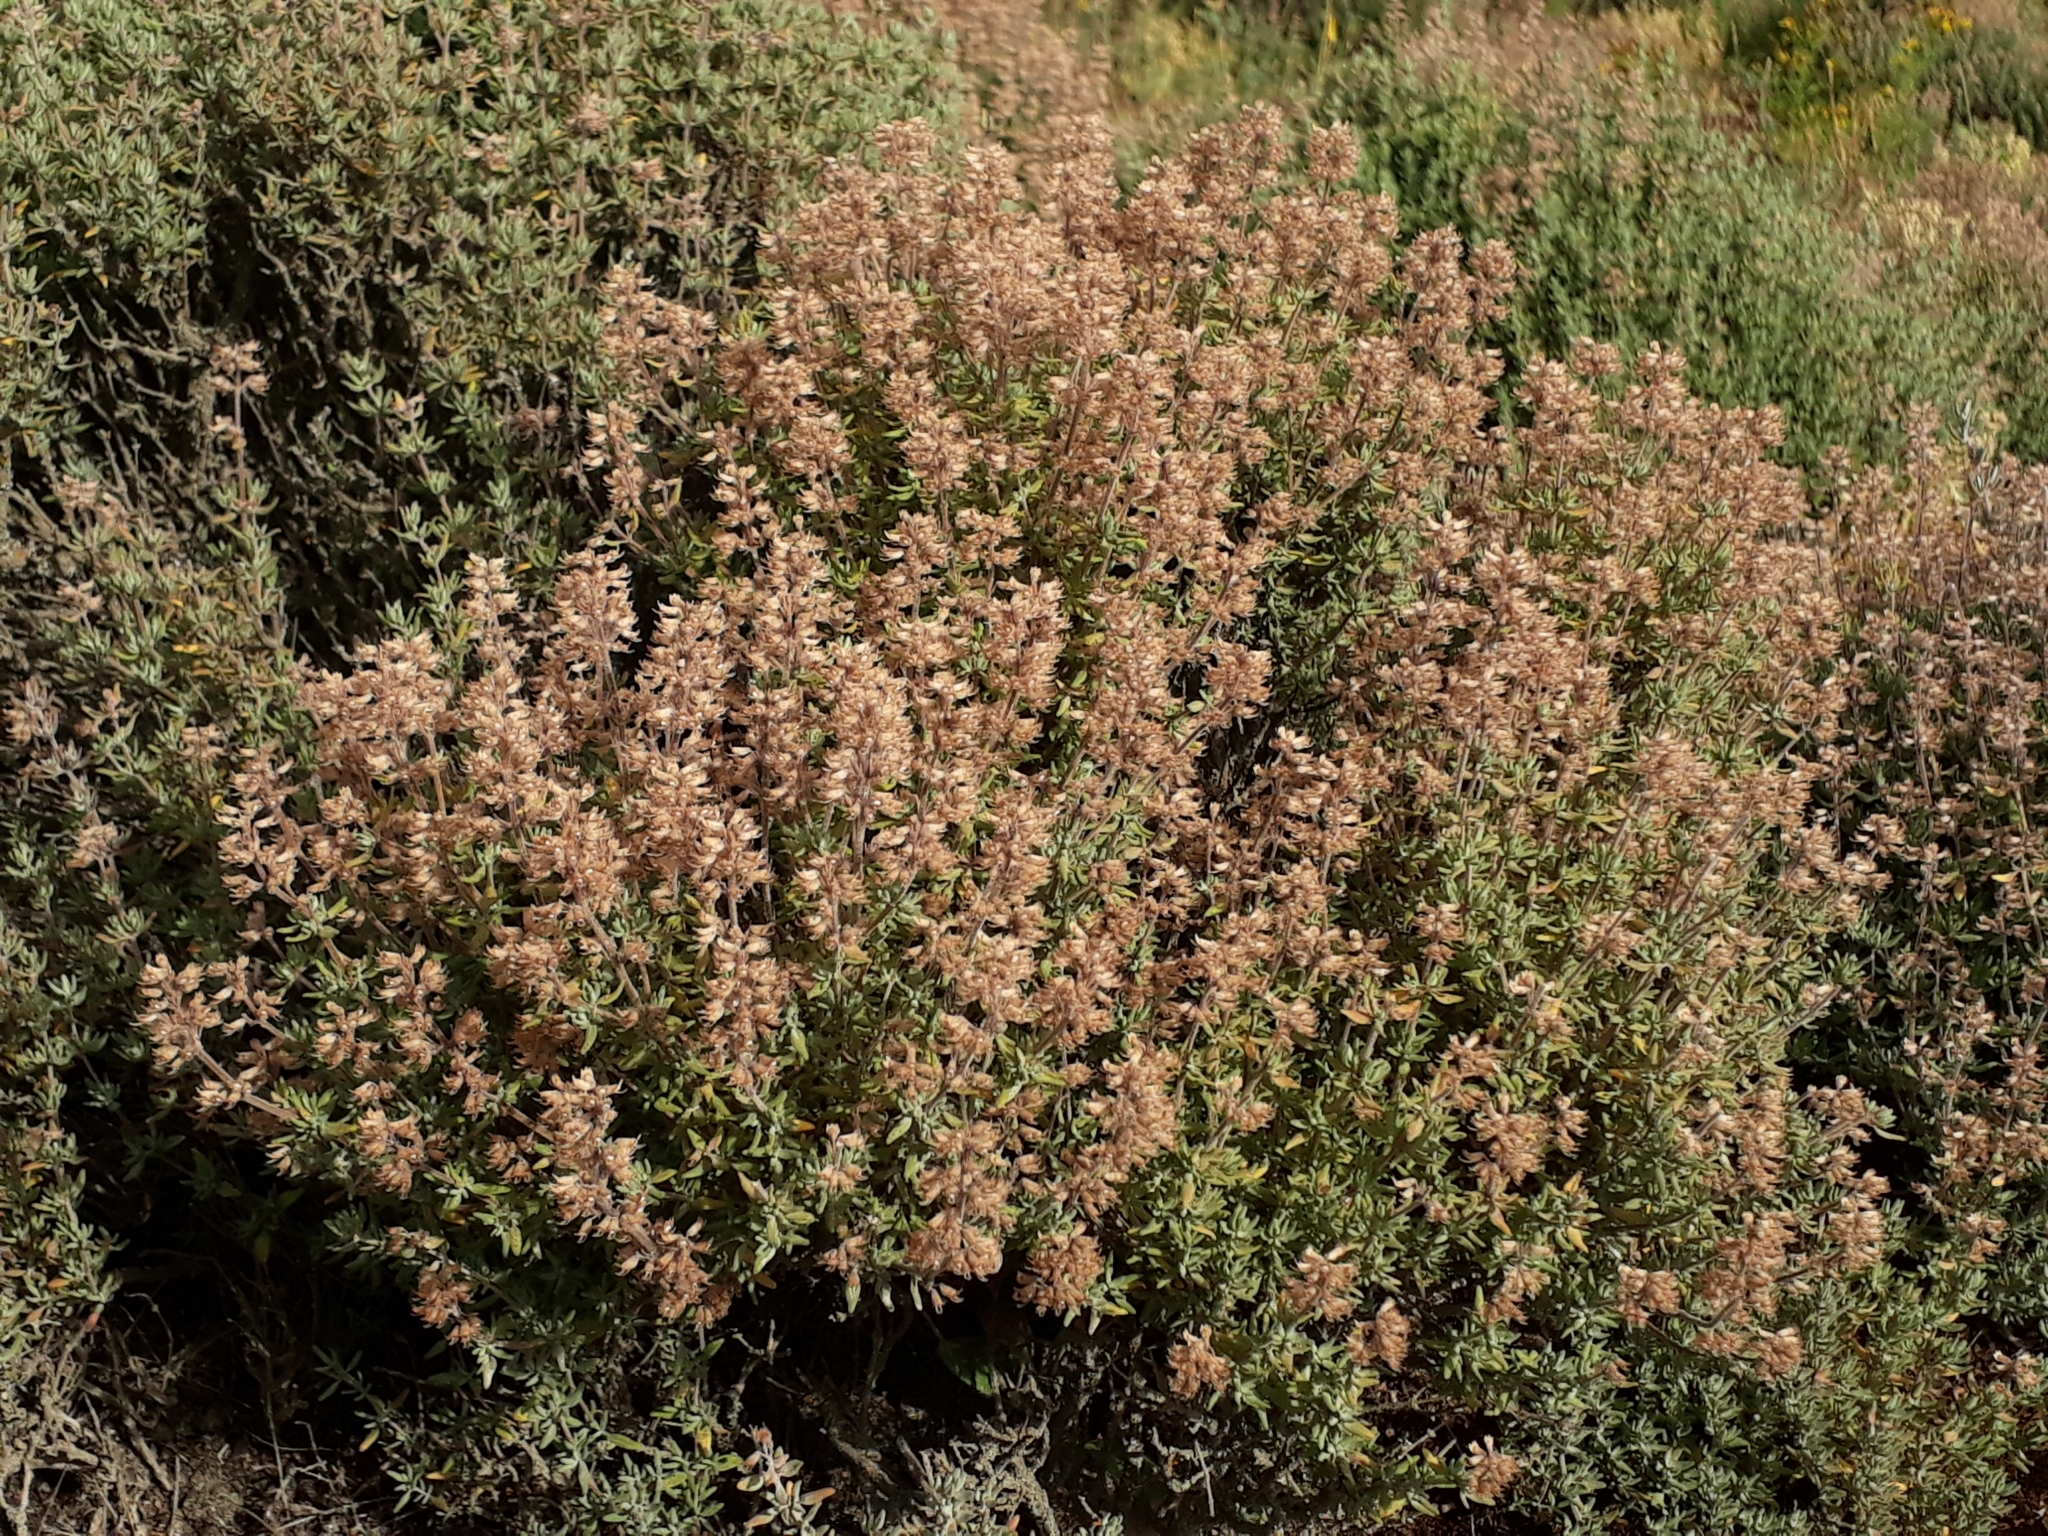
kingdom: Plantae
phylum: Tracheophyta
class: Magnoliopsida
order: Lamiales
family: Lamiaceae
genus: Thymus
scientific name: Thymus vulgaris
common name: Garden thyme
